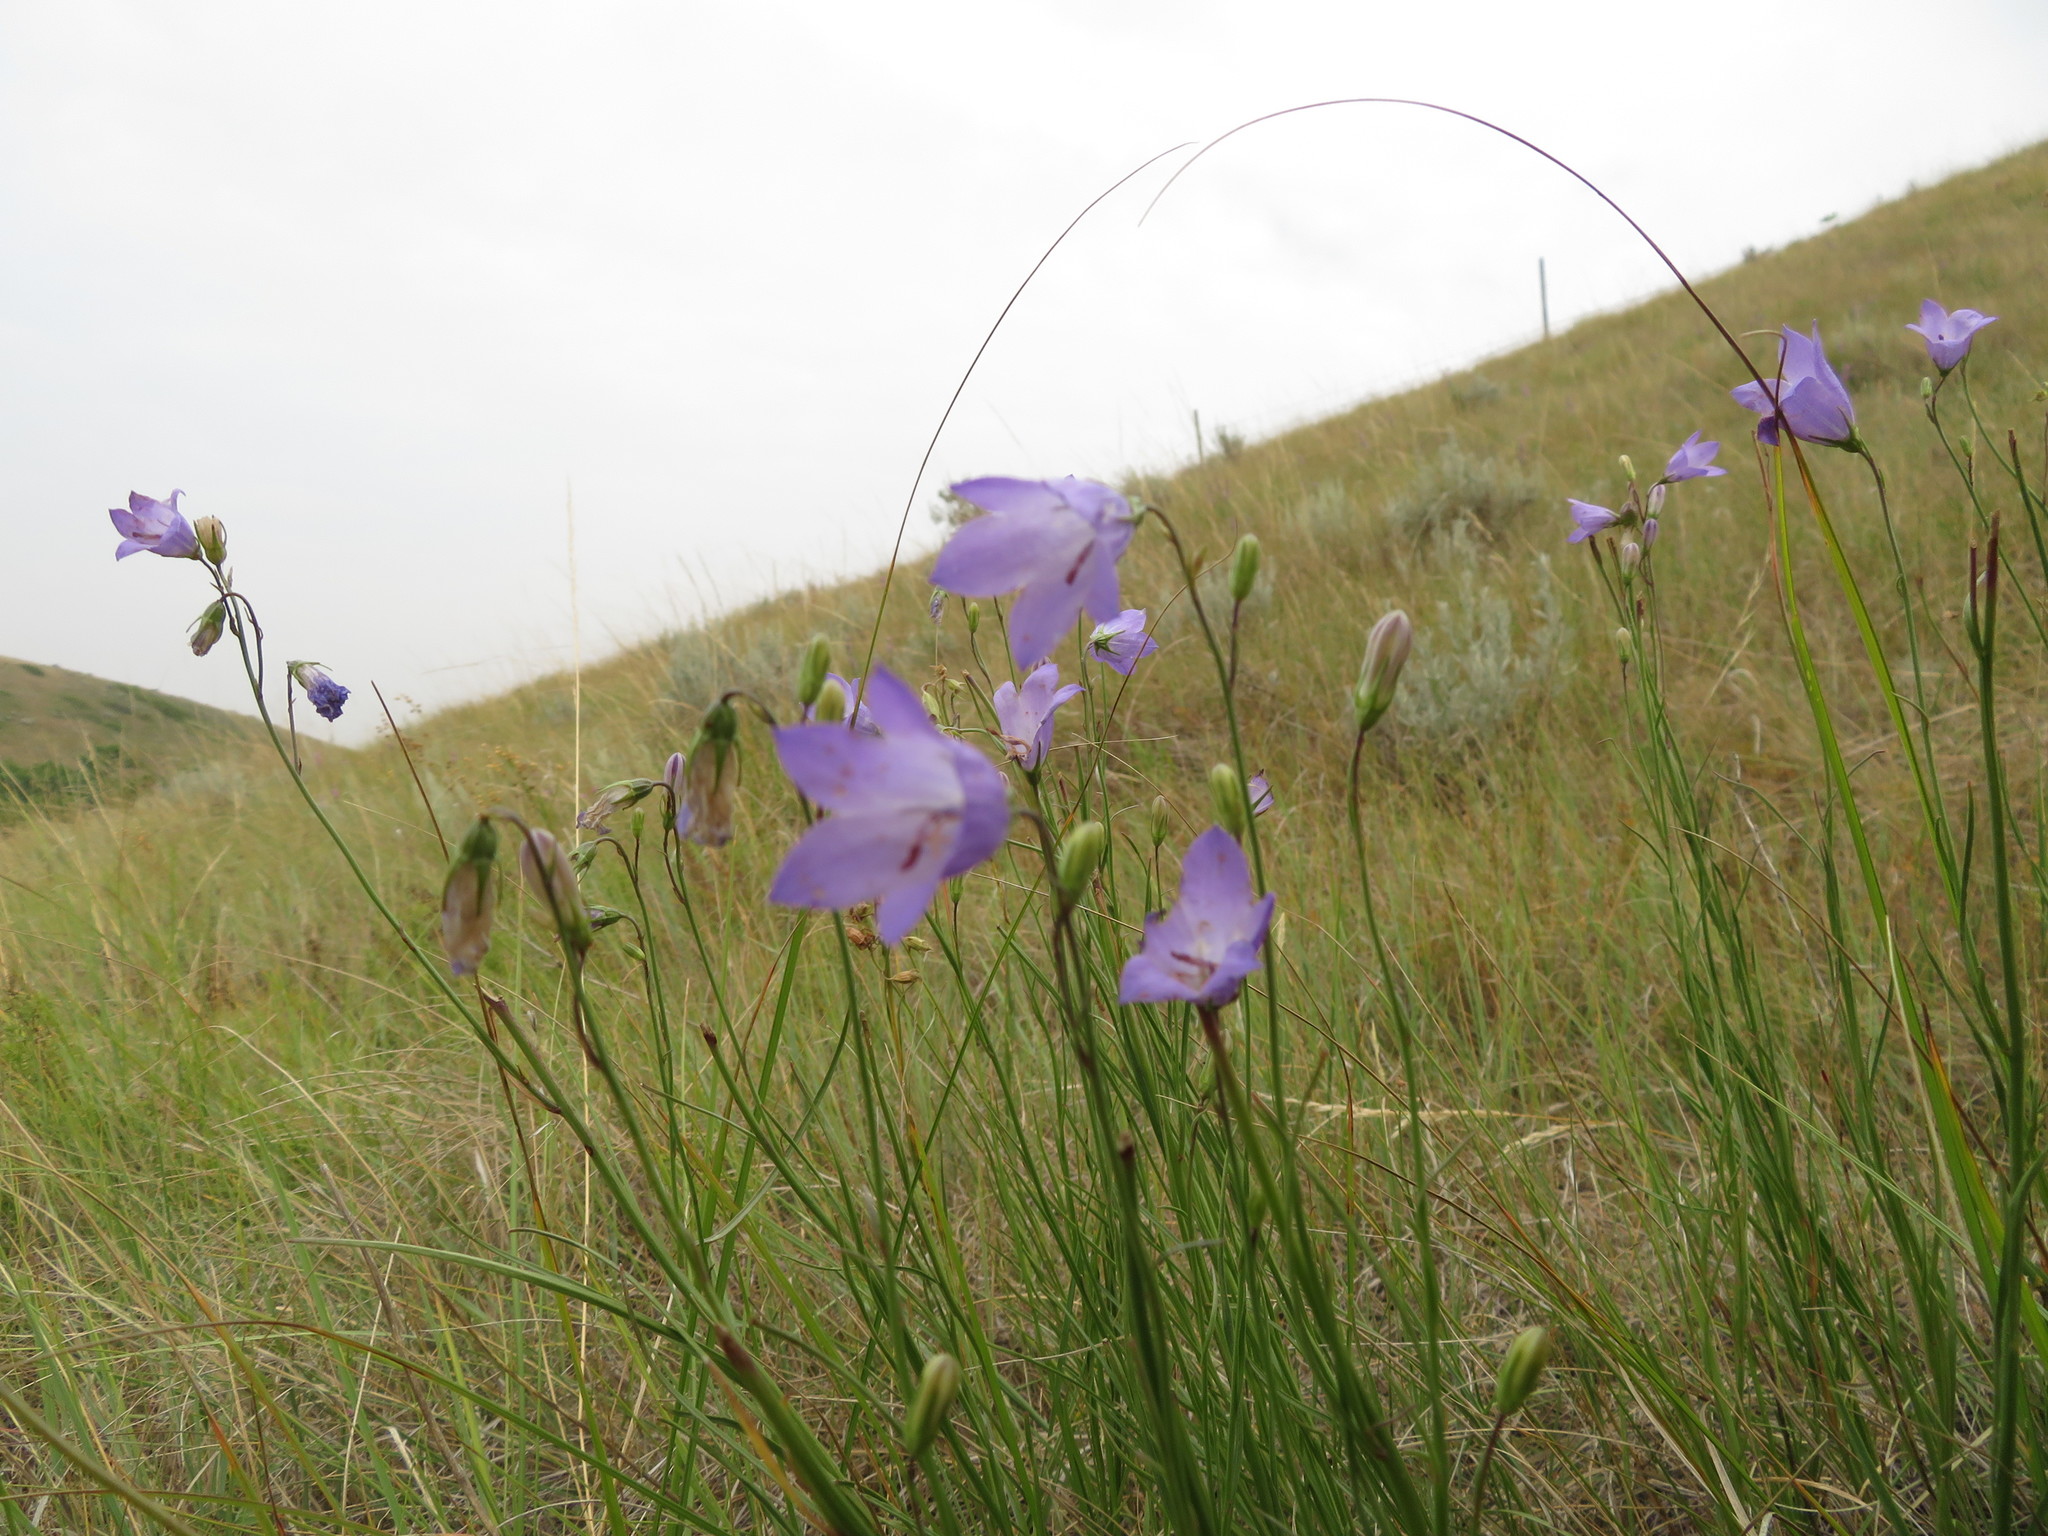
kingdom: Plantae
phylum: Tracheophyta
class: Magnoliopsida
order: Asterales
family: Campanulaceae
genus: Campanula
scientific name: Campanula alaskana
